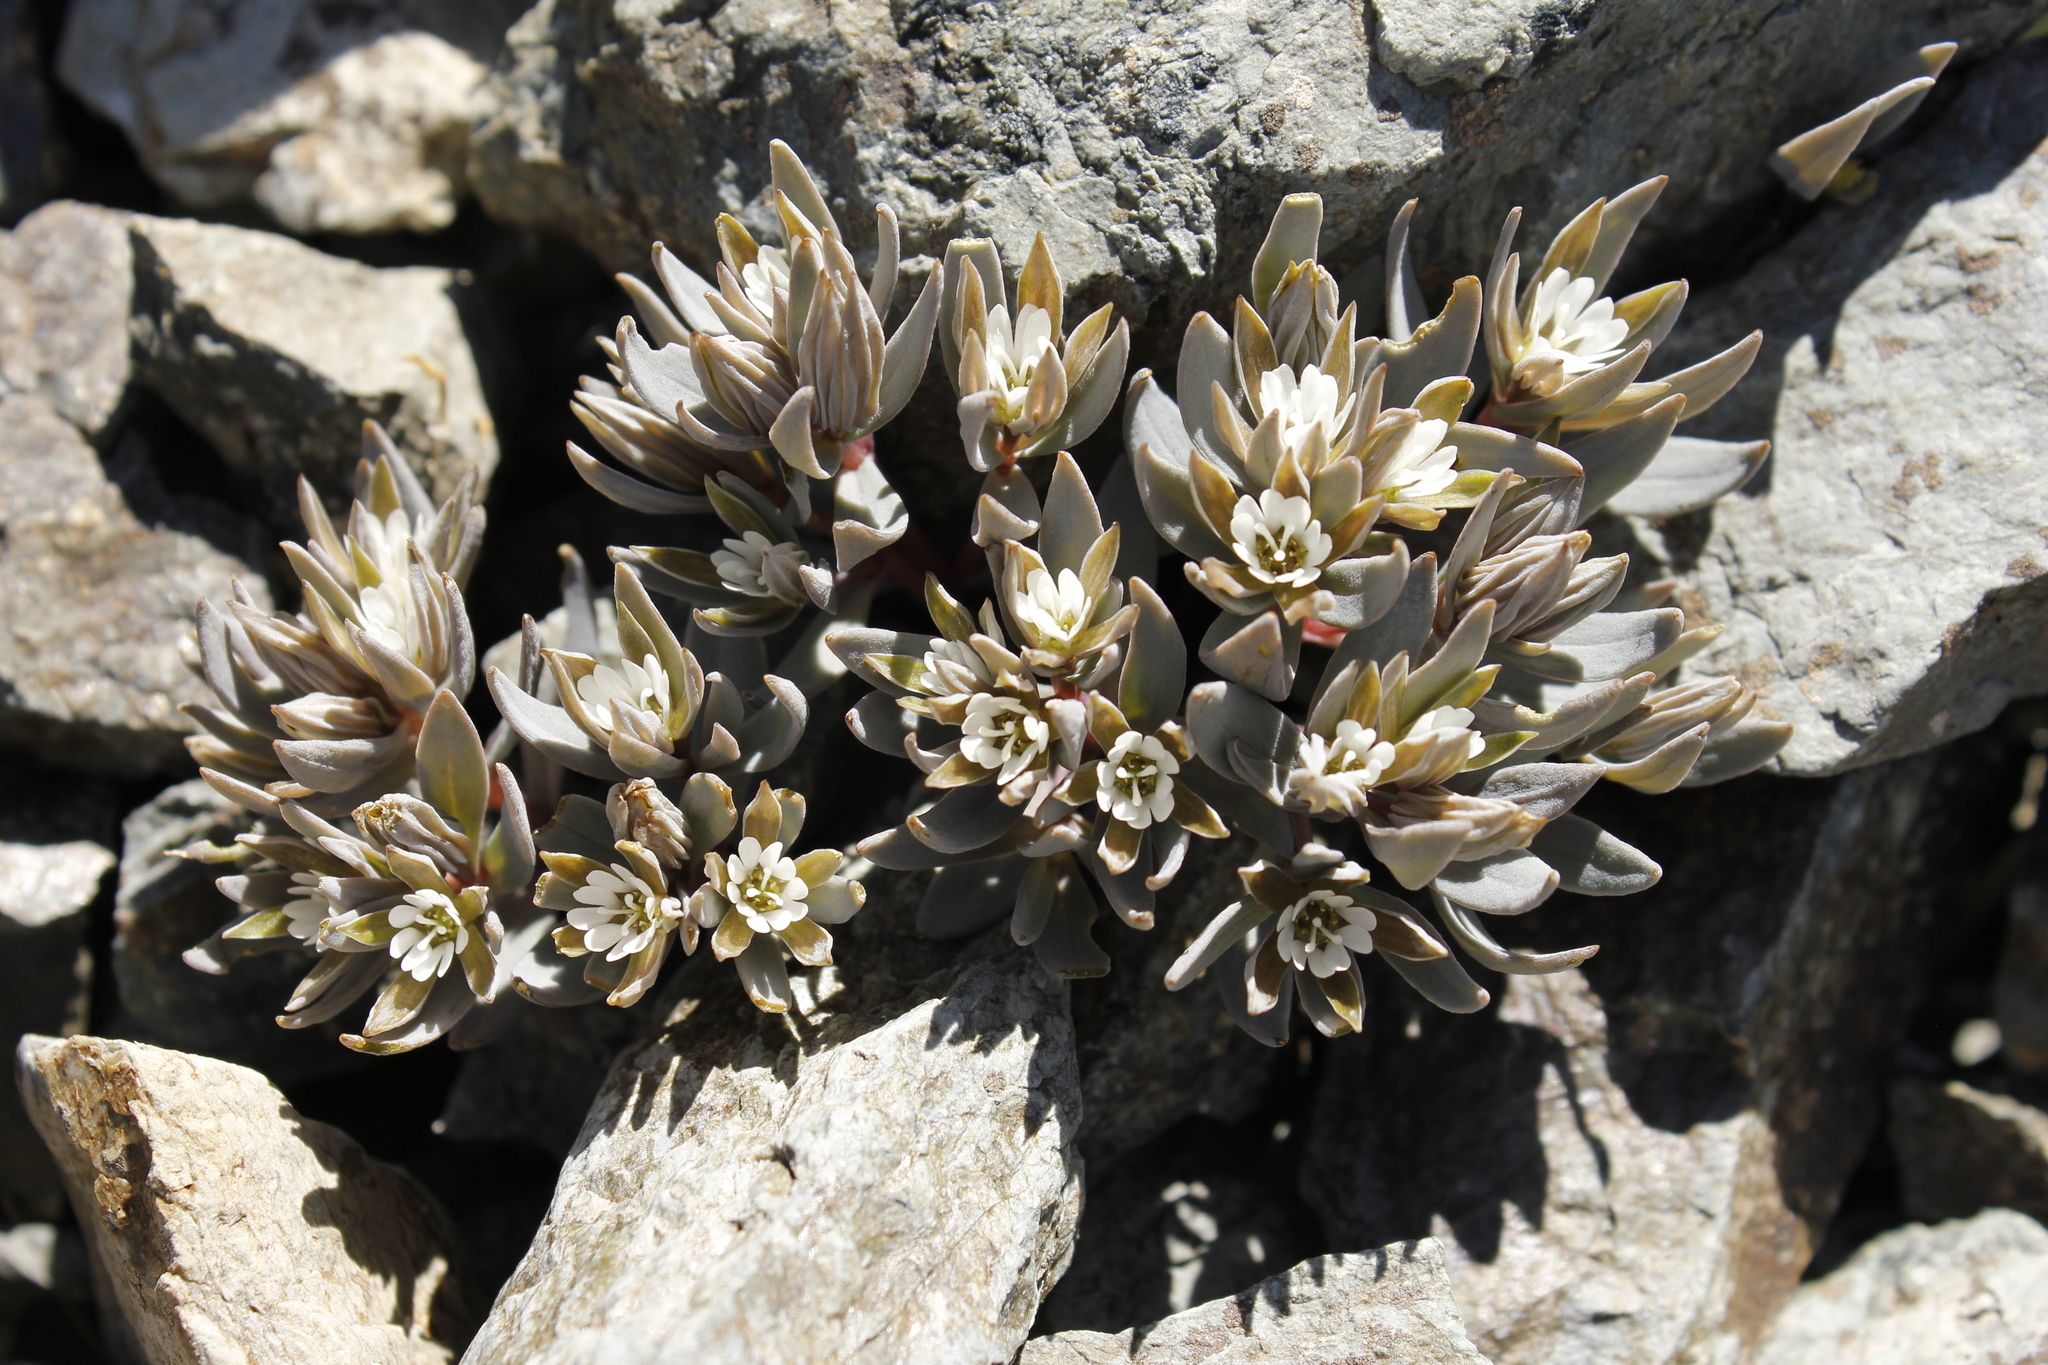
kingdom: Plantae
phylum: Tracheophyta
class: Magnoliopsida
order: Caryophyllales
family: Caryophyllaceae
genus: Stellaria
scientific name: Stellaria roughii
